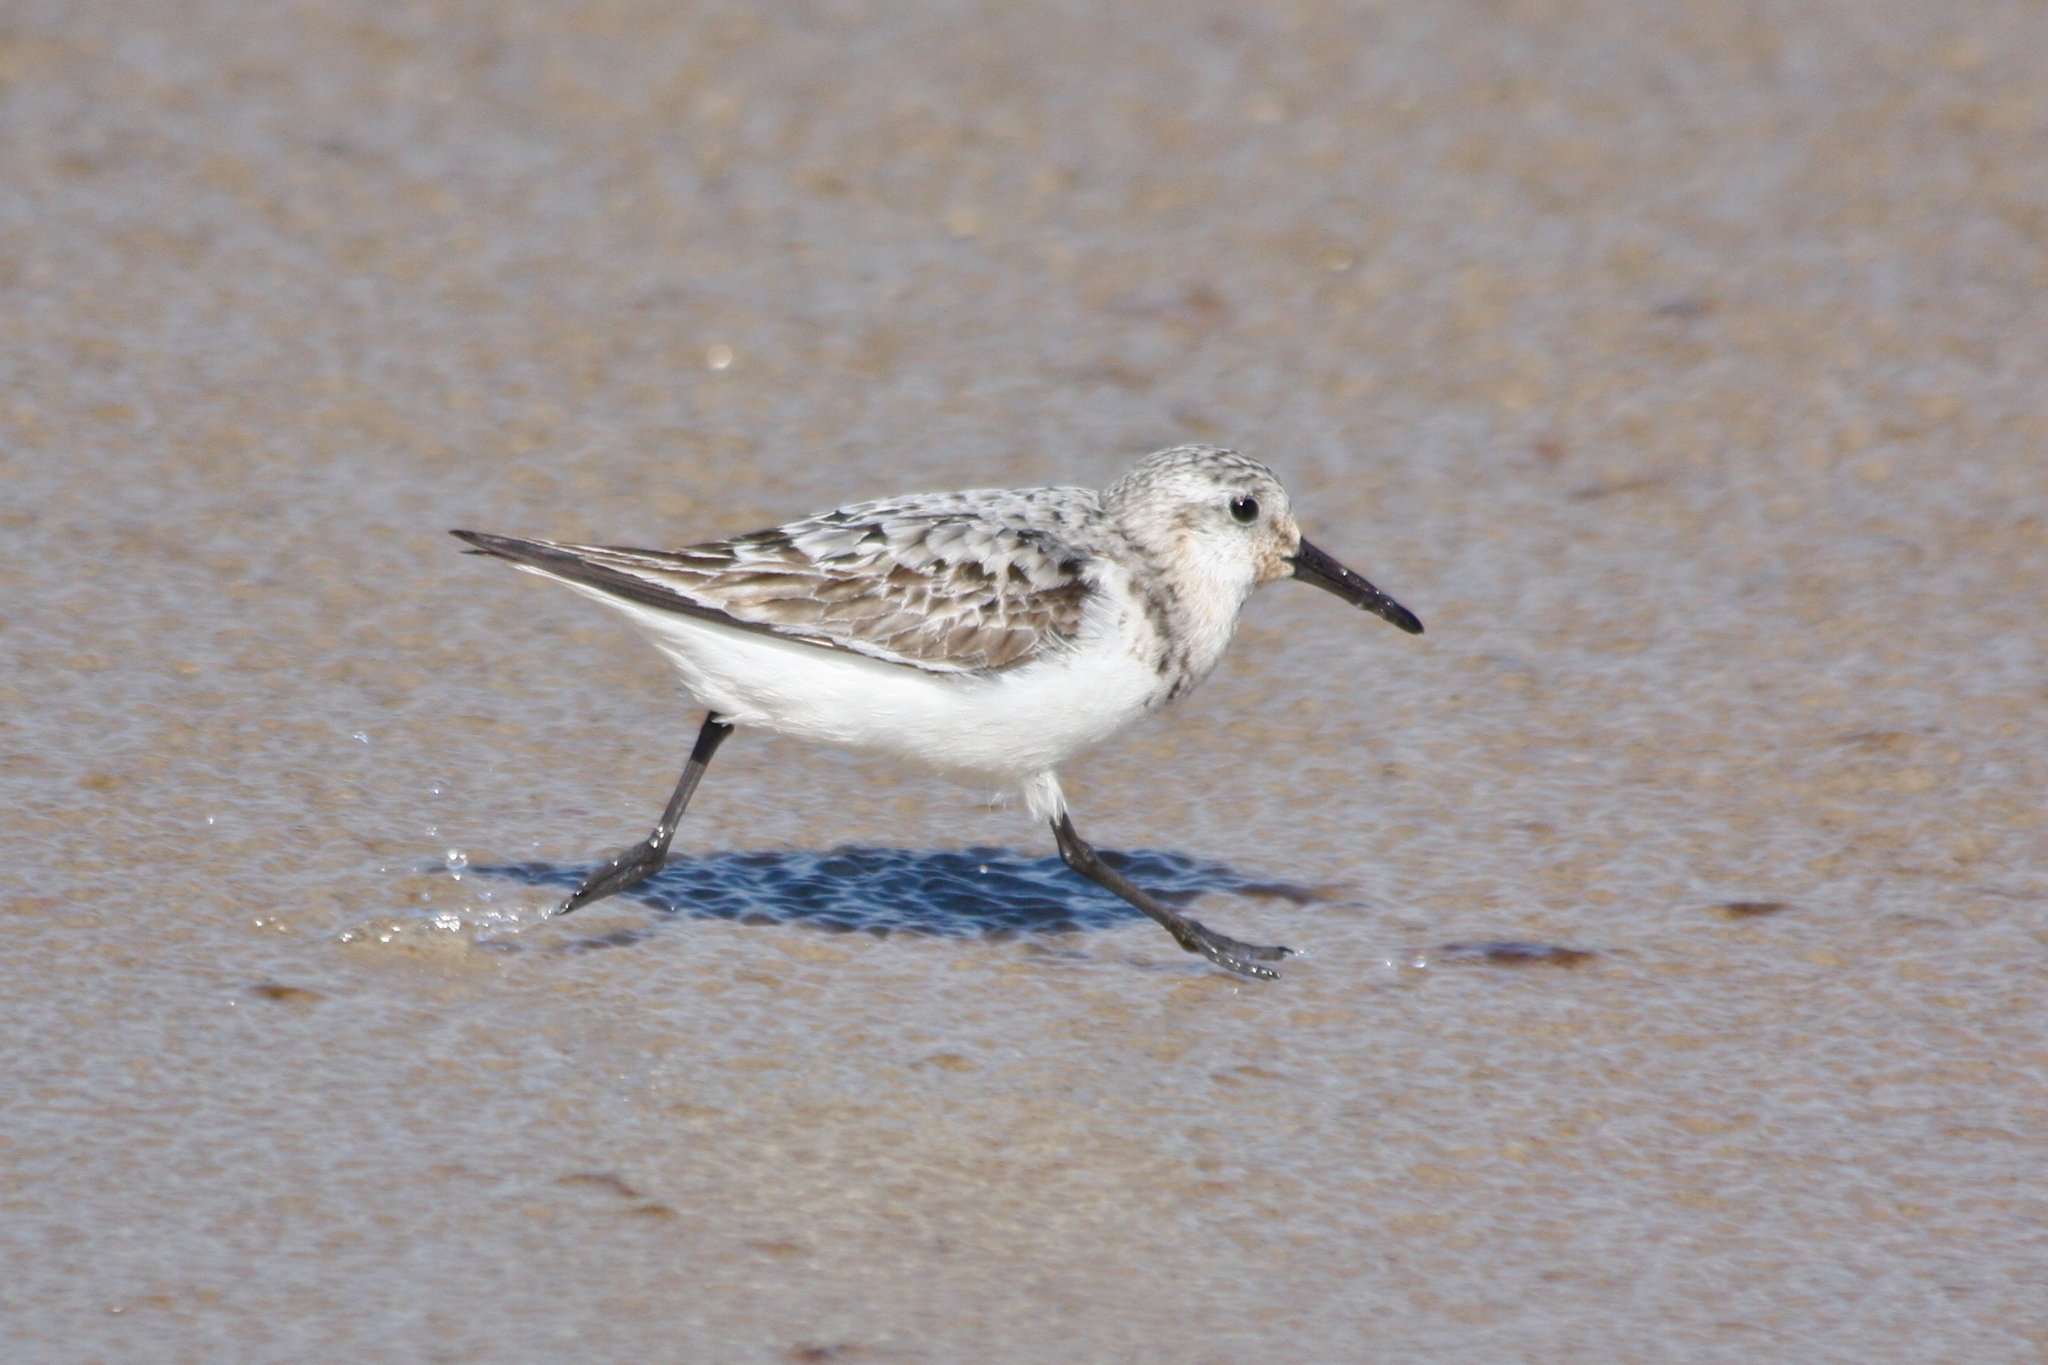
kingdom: Animalia
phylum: Chordata
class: Aves
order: Charadriiformes
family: Scolopacidae
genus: Calidris
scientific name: Calidris alba
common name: Sanderling
